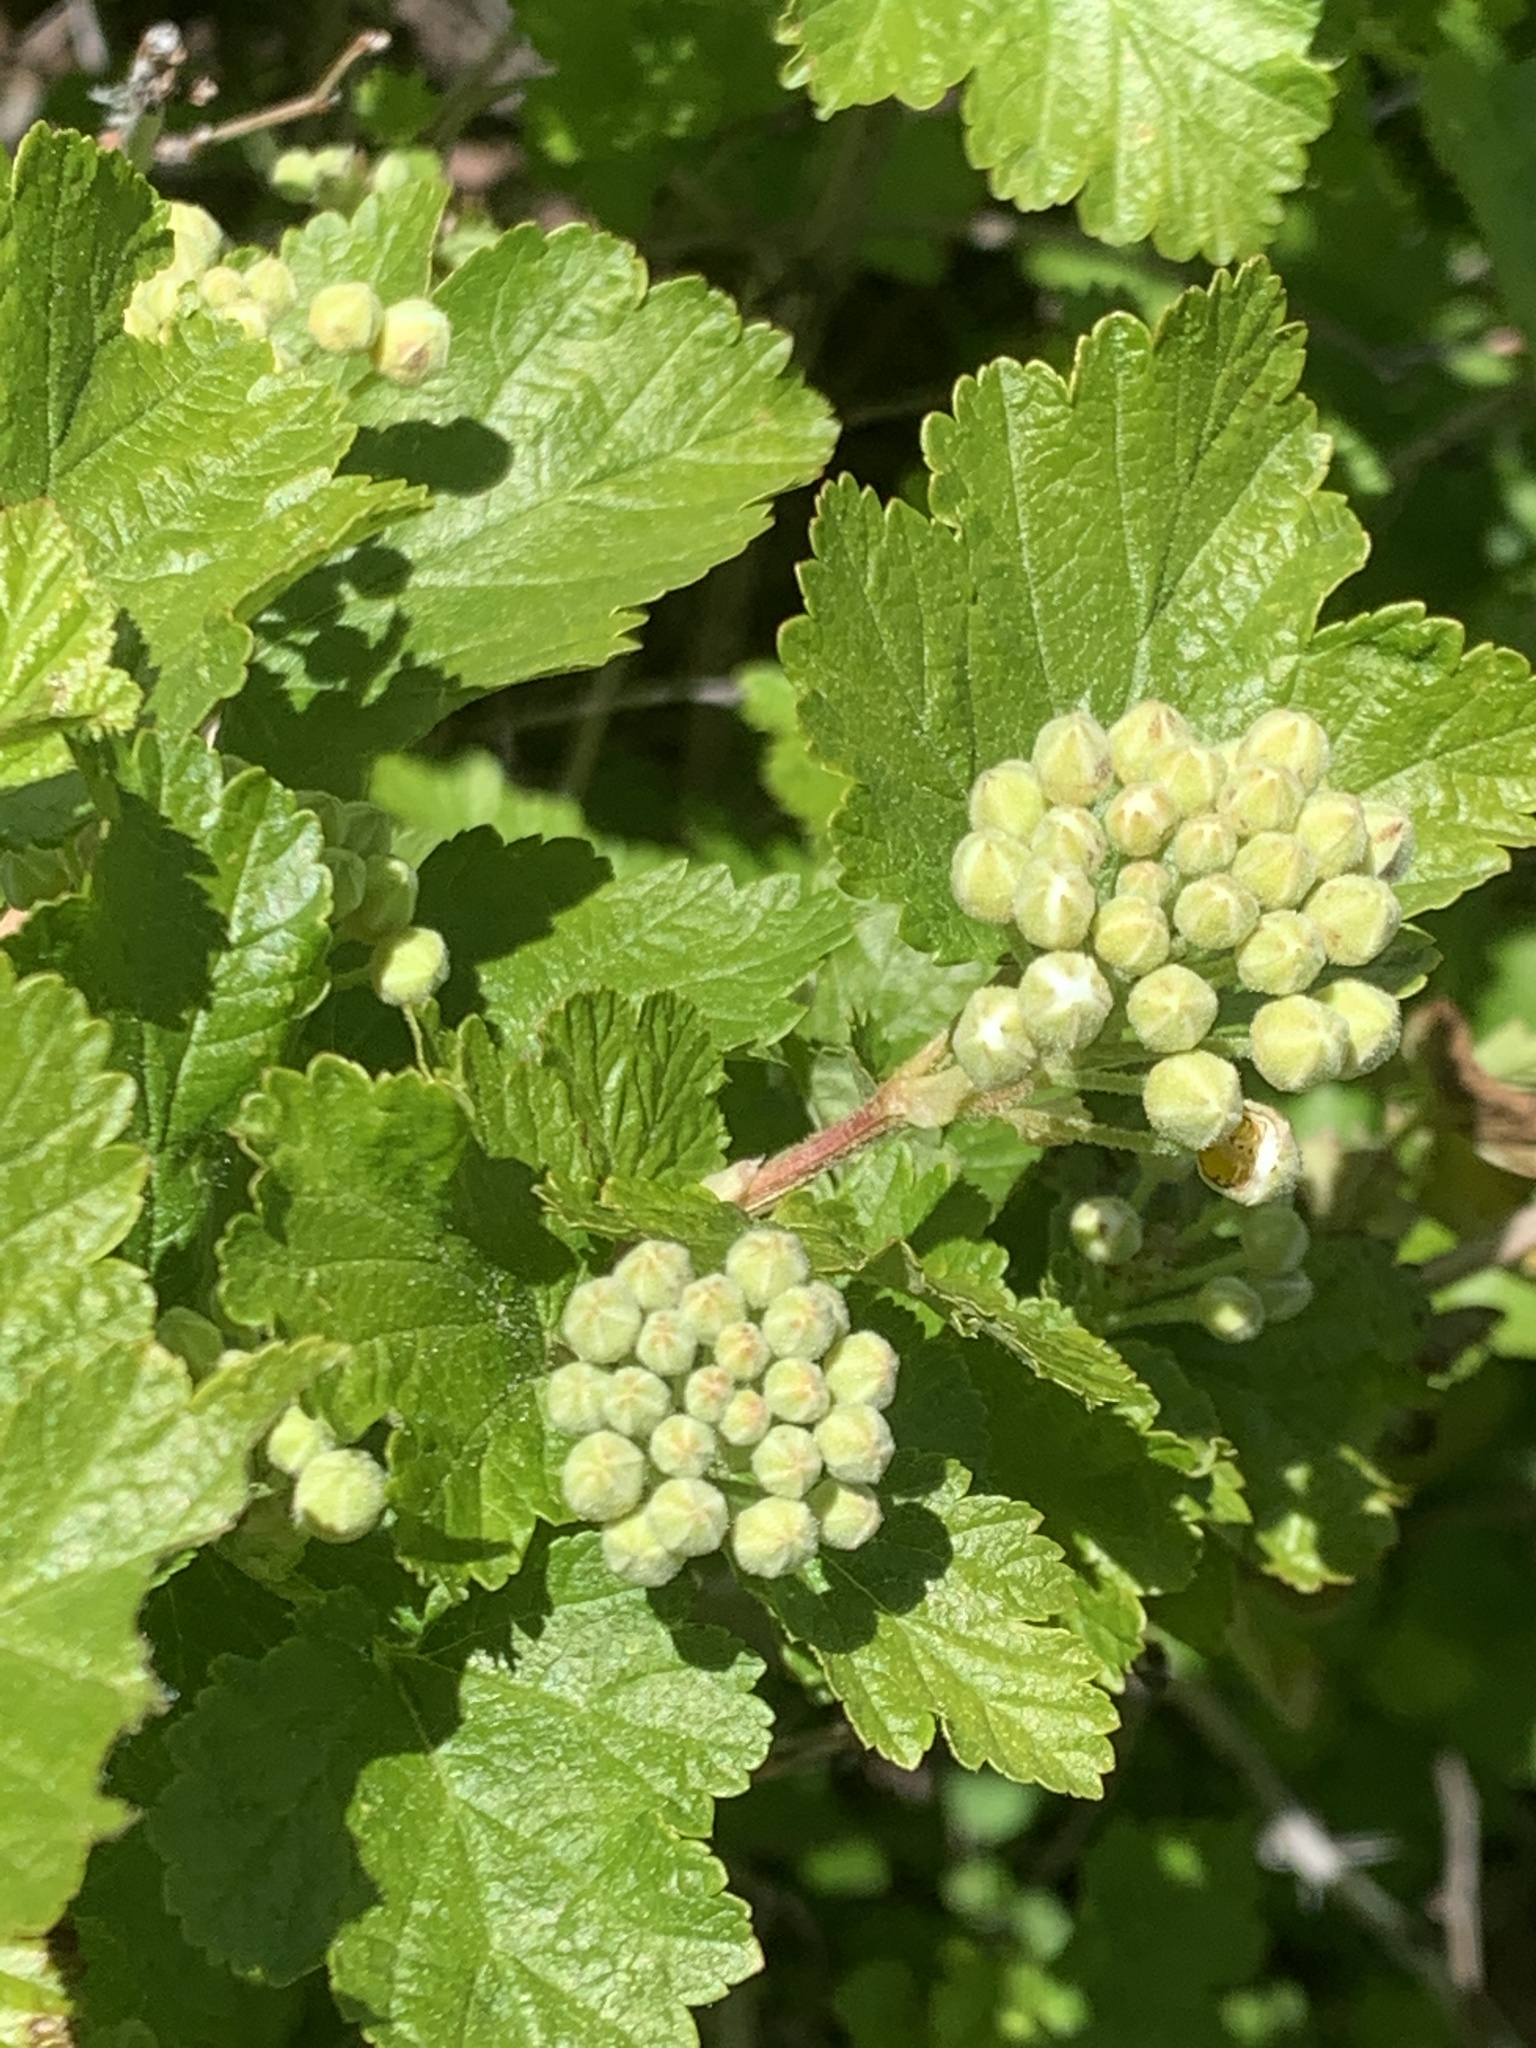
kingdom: Plantae
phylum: Tracheophyta
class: Magnoliopsida
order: Rosales
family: Rosaceae
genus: Physocarpus
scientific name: Physocarpus malvaceus
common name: Mallow ninebark
